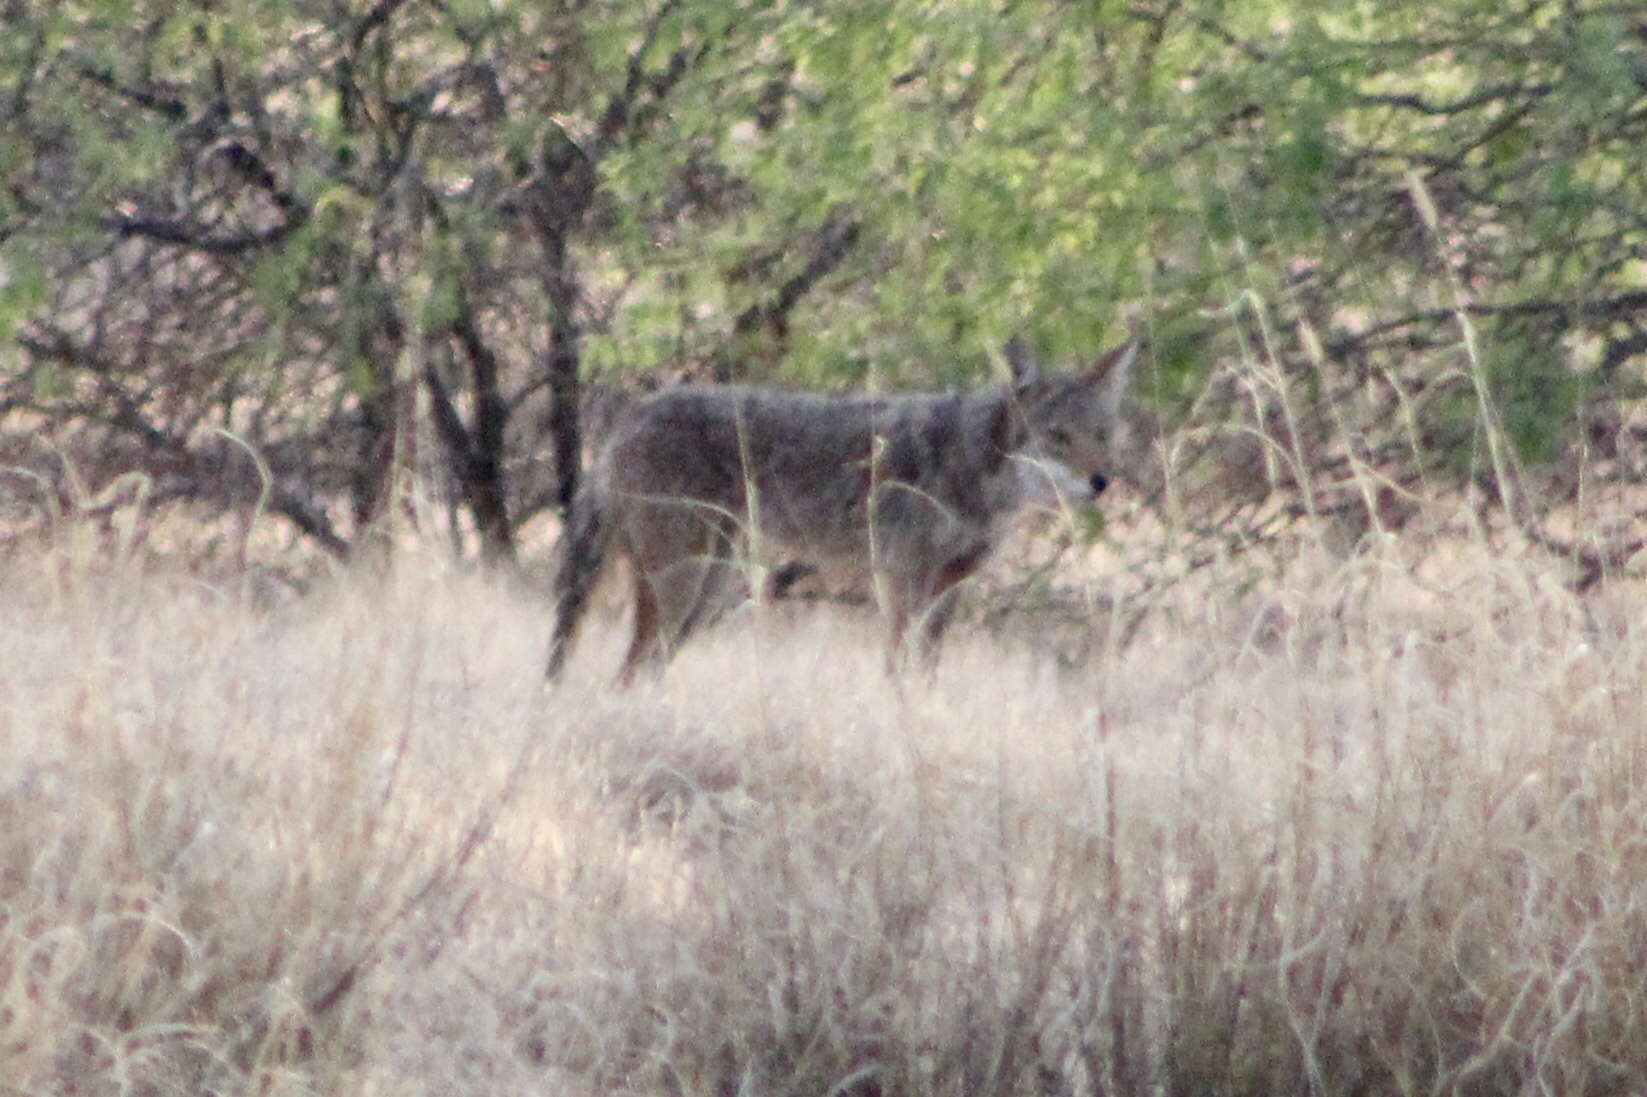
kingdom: Animalia
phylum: Chordata
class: Mammalia
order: Carnivora
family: Canidae
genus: Canis
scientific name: Canis latrans
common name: Coyote
